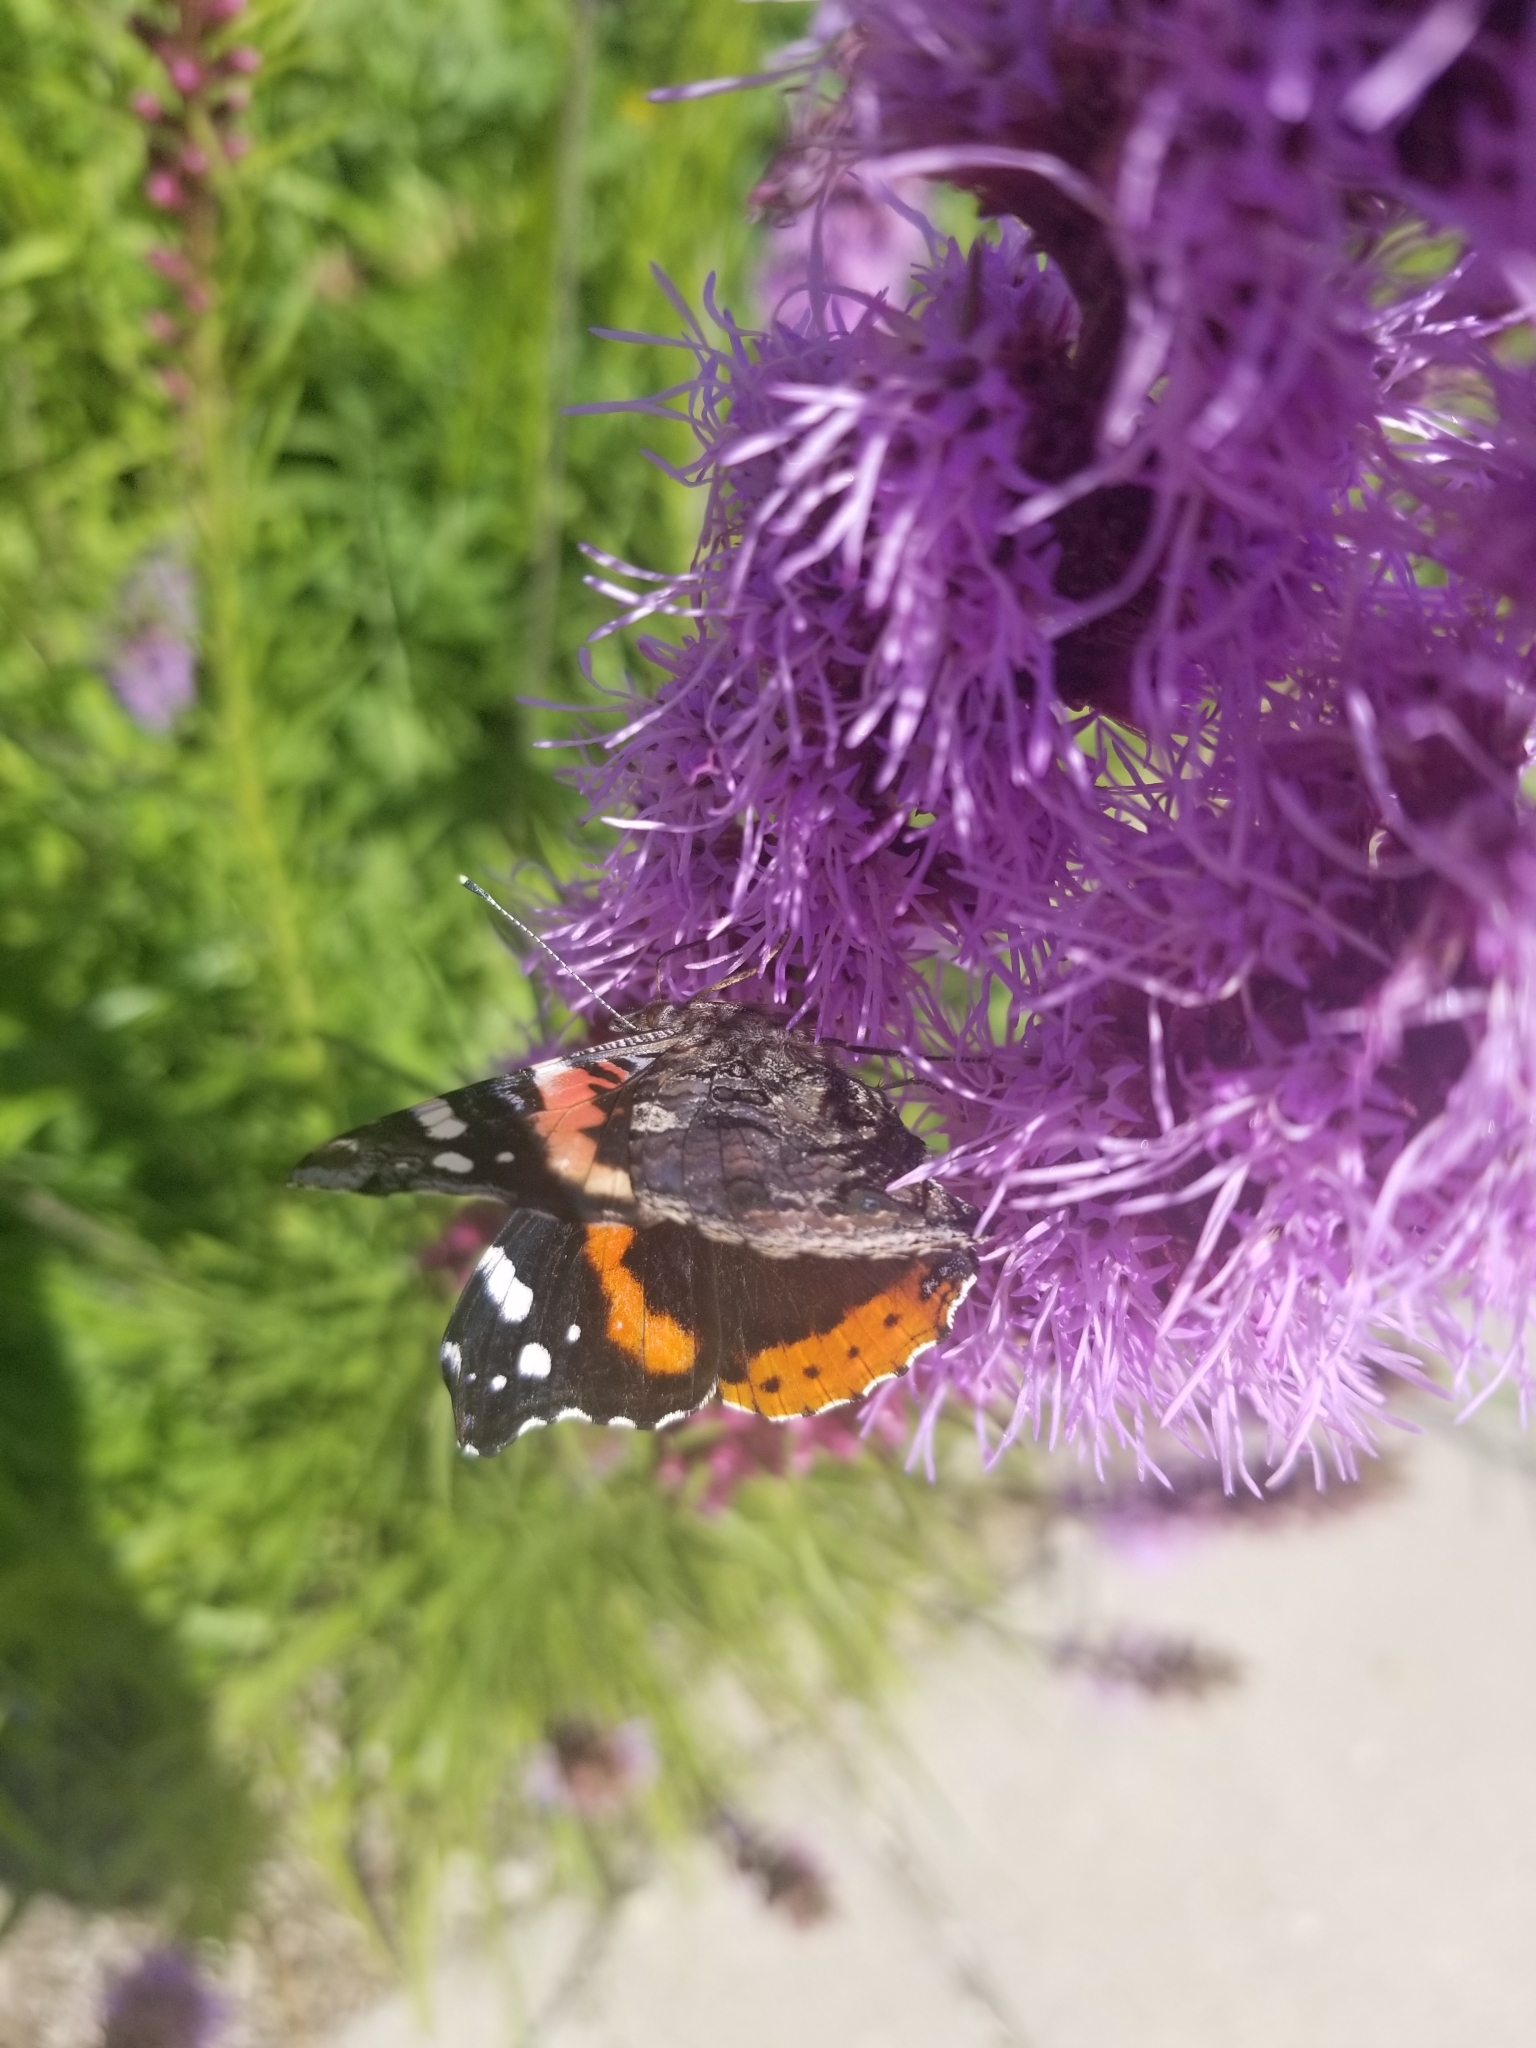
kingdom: Animalia
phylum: Arthropoda
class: Insecta
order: Lepidoptera
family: Nymphalidae
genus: Vanessa
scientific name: Vanessa atalanta
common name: Red admiral
